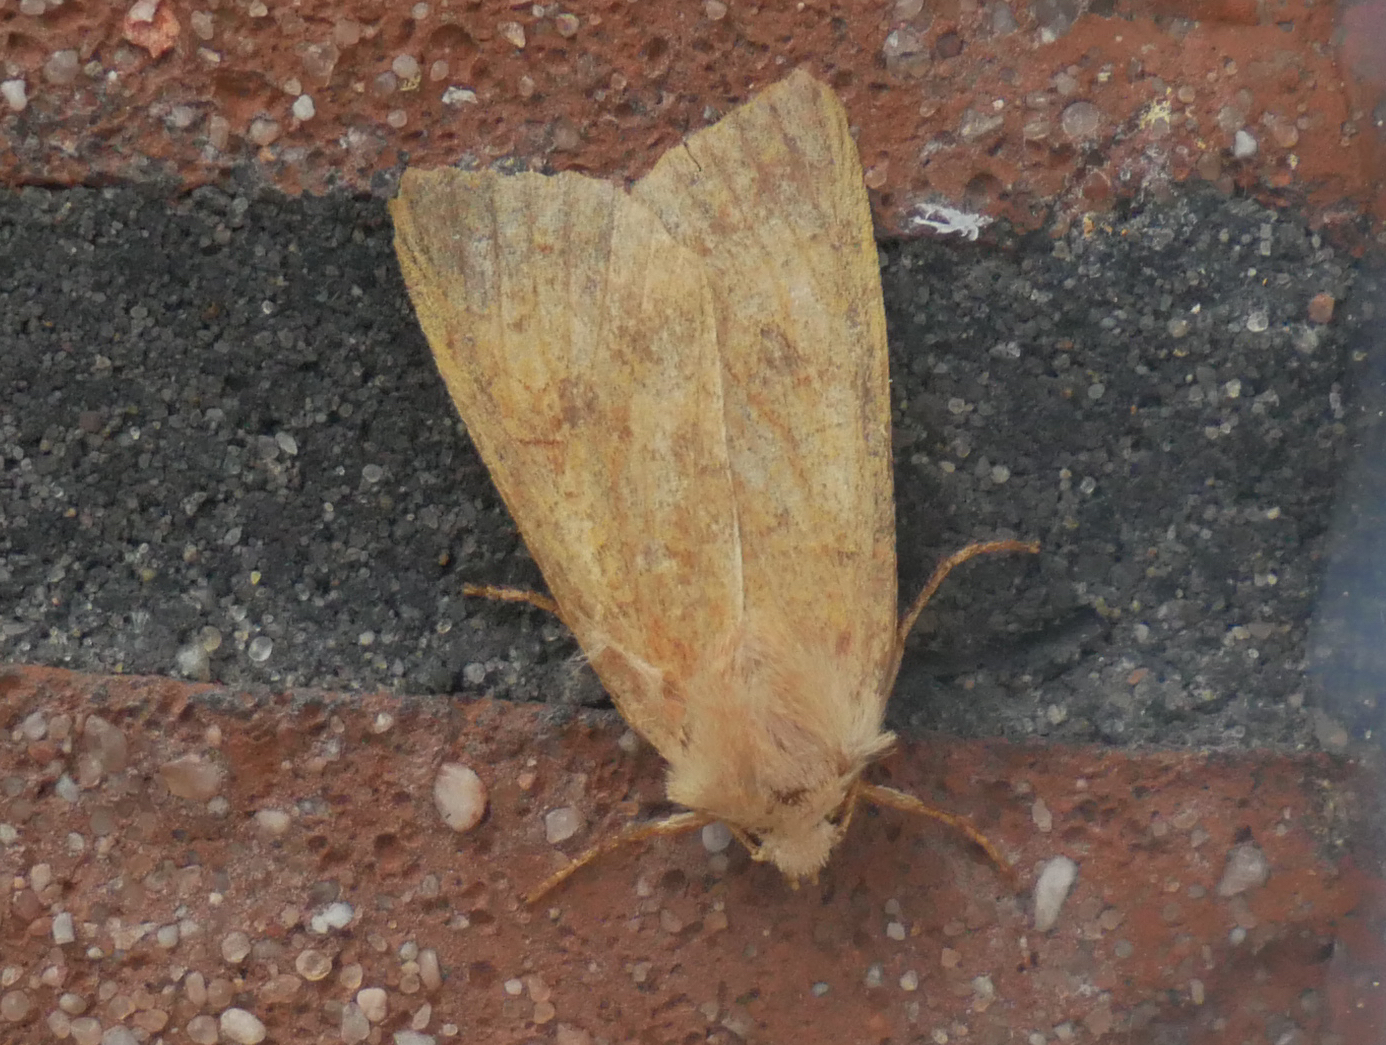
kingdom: Animalia
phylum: Arthropoda
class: Insecta
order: Lepidoptera
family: Noctuidae
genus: Sunira
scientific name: Sunira circellaris
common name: Brick
